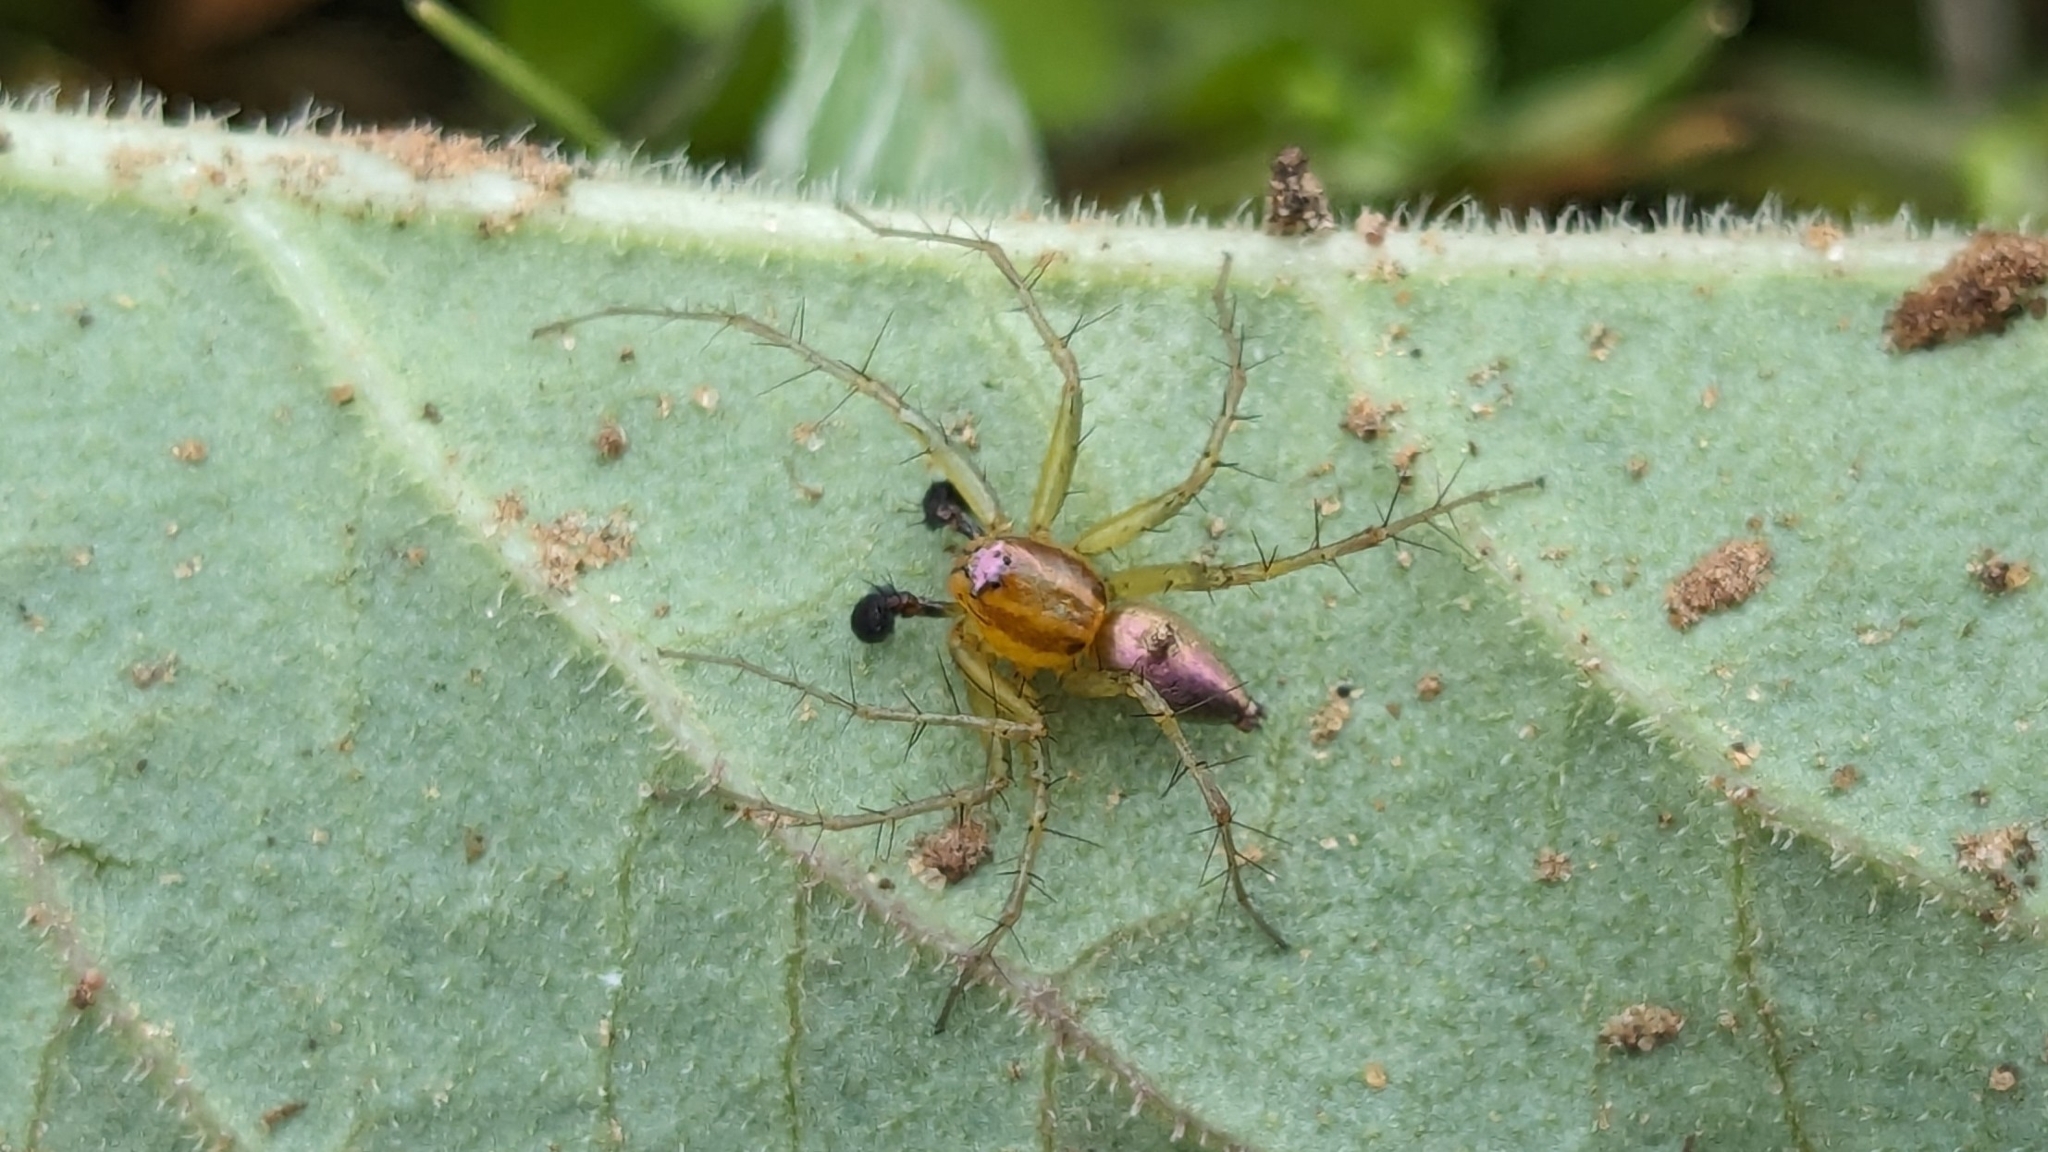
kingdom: Animalia
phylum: Arthropoda
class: Arachnida
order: Araneae
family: Oxyopidae
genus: Oxyopes
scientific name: Oxyopes salticus
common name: Lynx spiders
